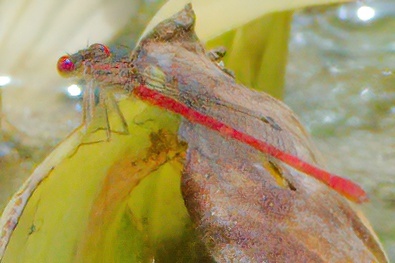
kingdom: Animalia
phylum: Arthropoda
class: Insecta
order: Odonata
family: Coenagrionidae
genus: Telebasis
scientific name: Telebasis byersi
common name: Duckweed firetail
